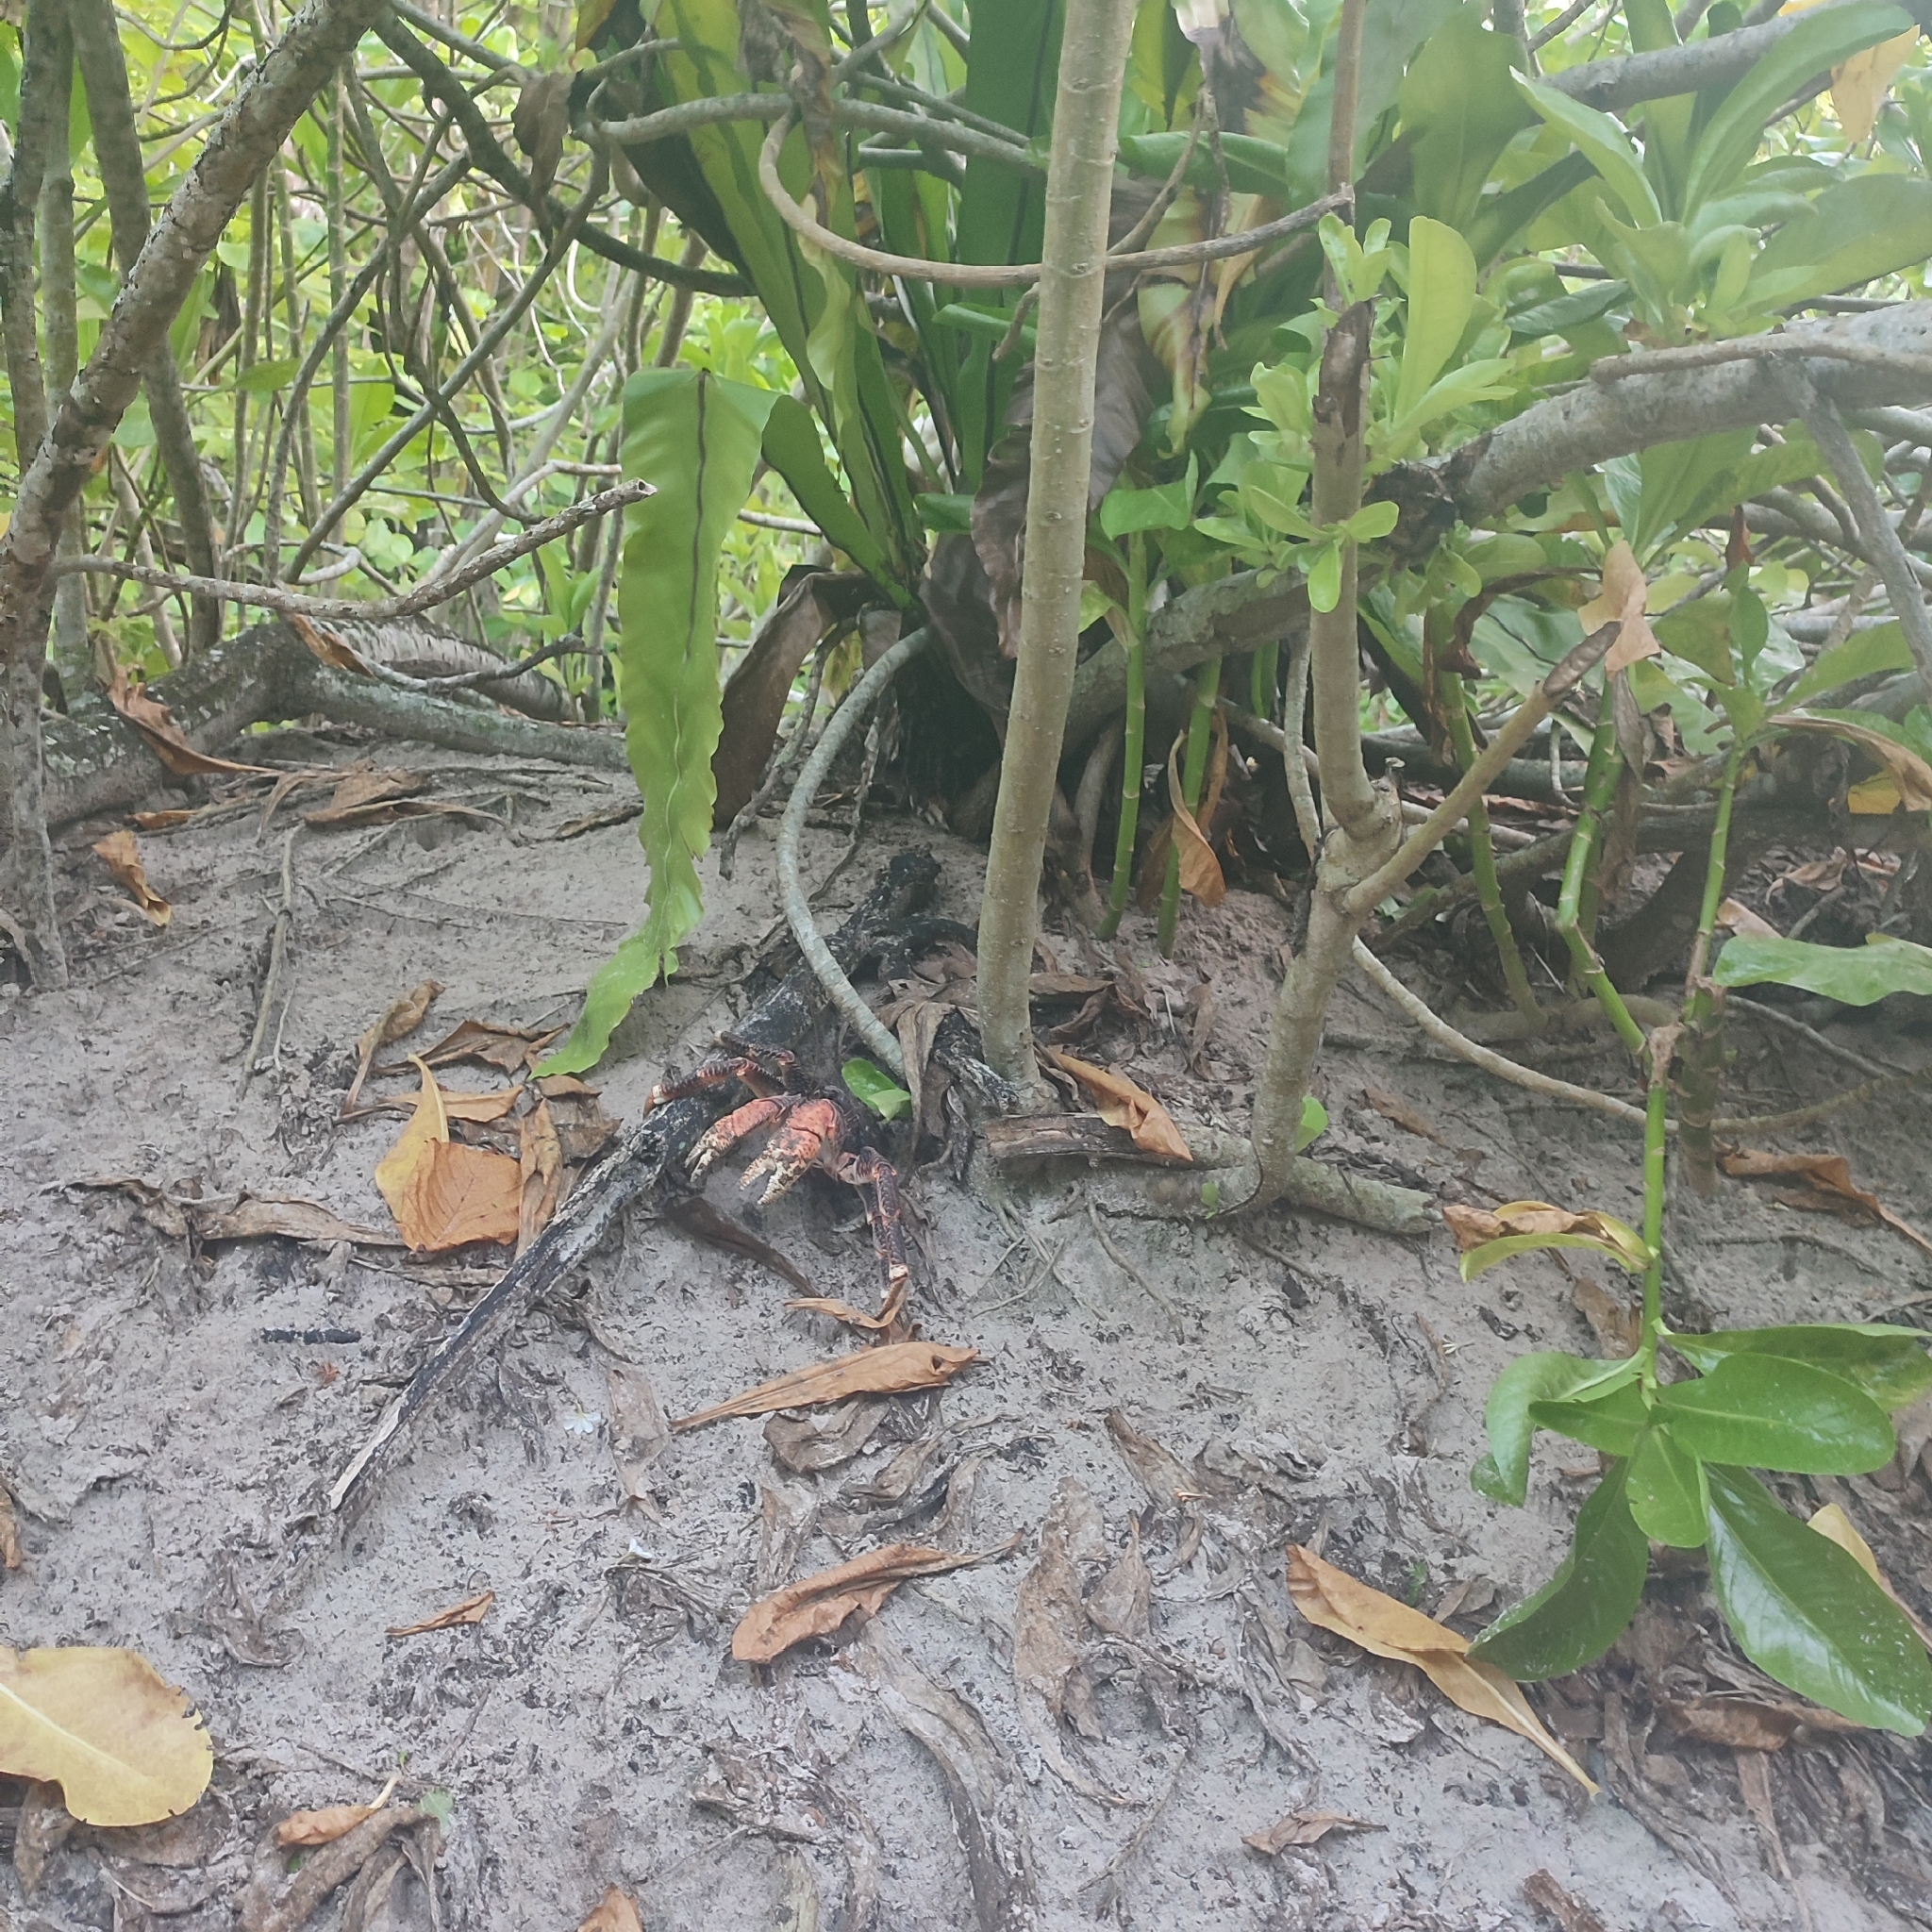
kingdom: Animalia
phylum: Arthropoda
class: Malacostraca
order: Decapoda
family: Coenobitidae
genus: Birgus
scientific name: Birgus latro
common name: Coconut crab
